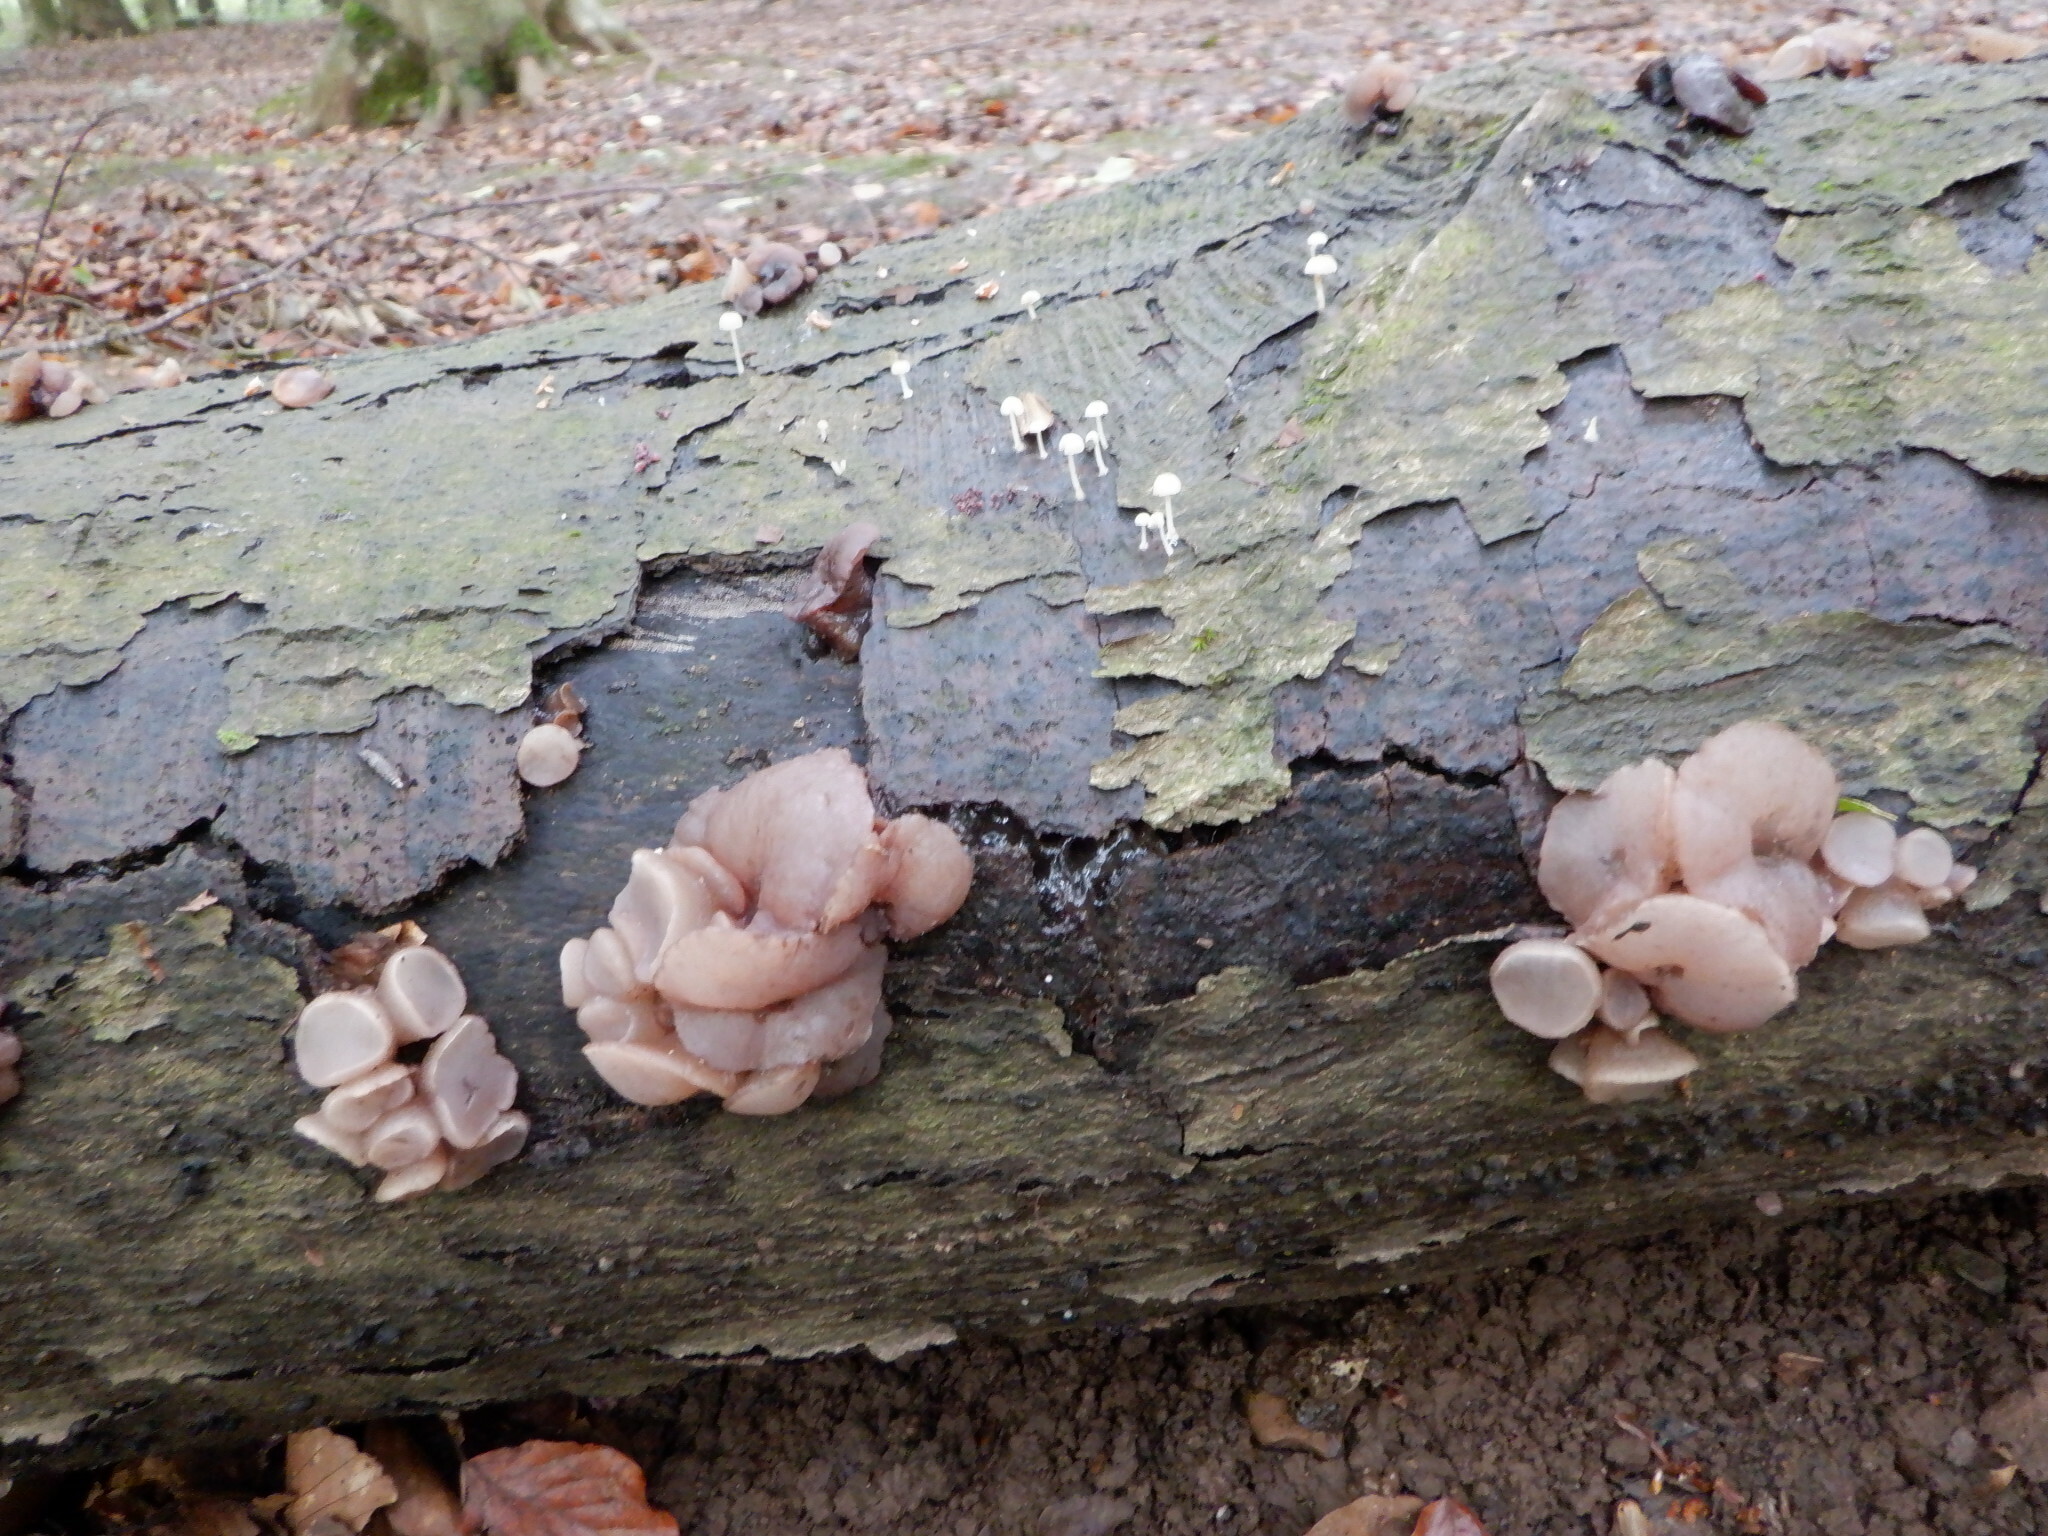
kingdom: Fungi
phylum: Ascomycota
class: Leotiomycetes
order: Helotiales
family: Gelatinodiscaceae
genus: Neobulgaria
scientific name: Neobulgaria pura
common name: Beech jelly-disc
